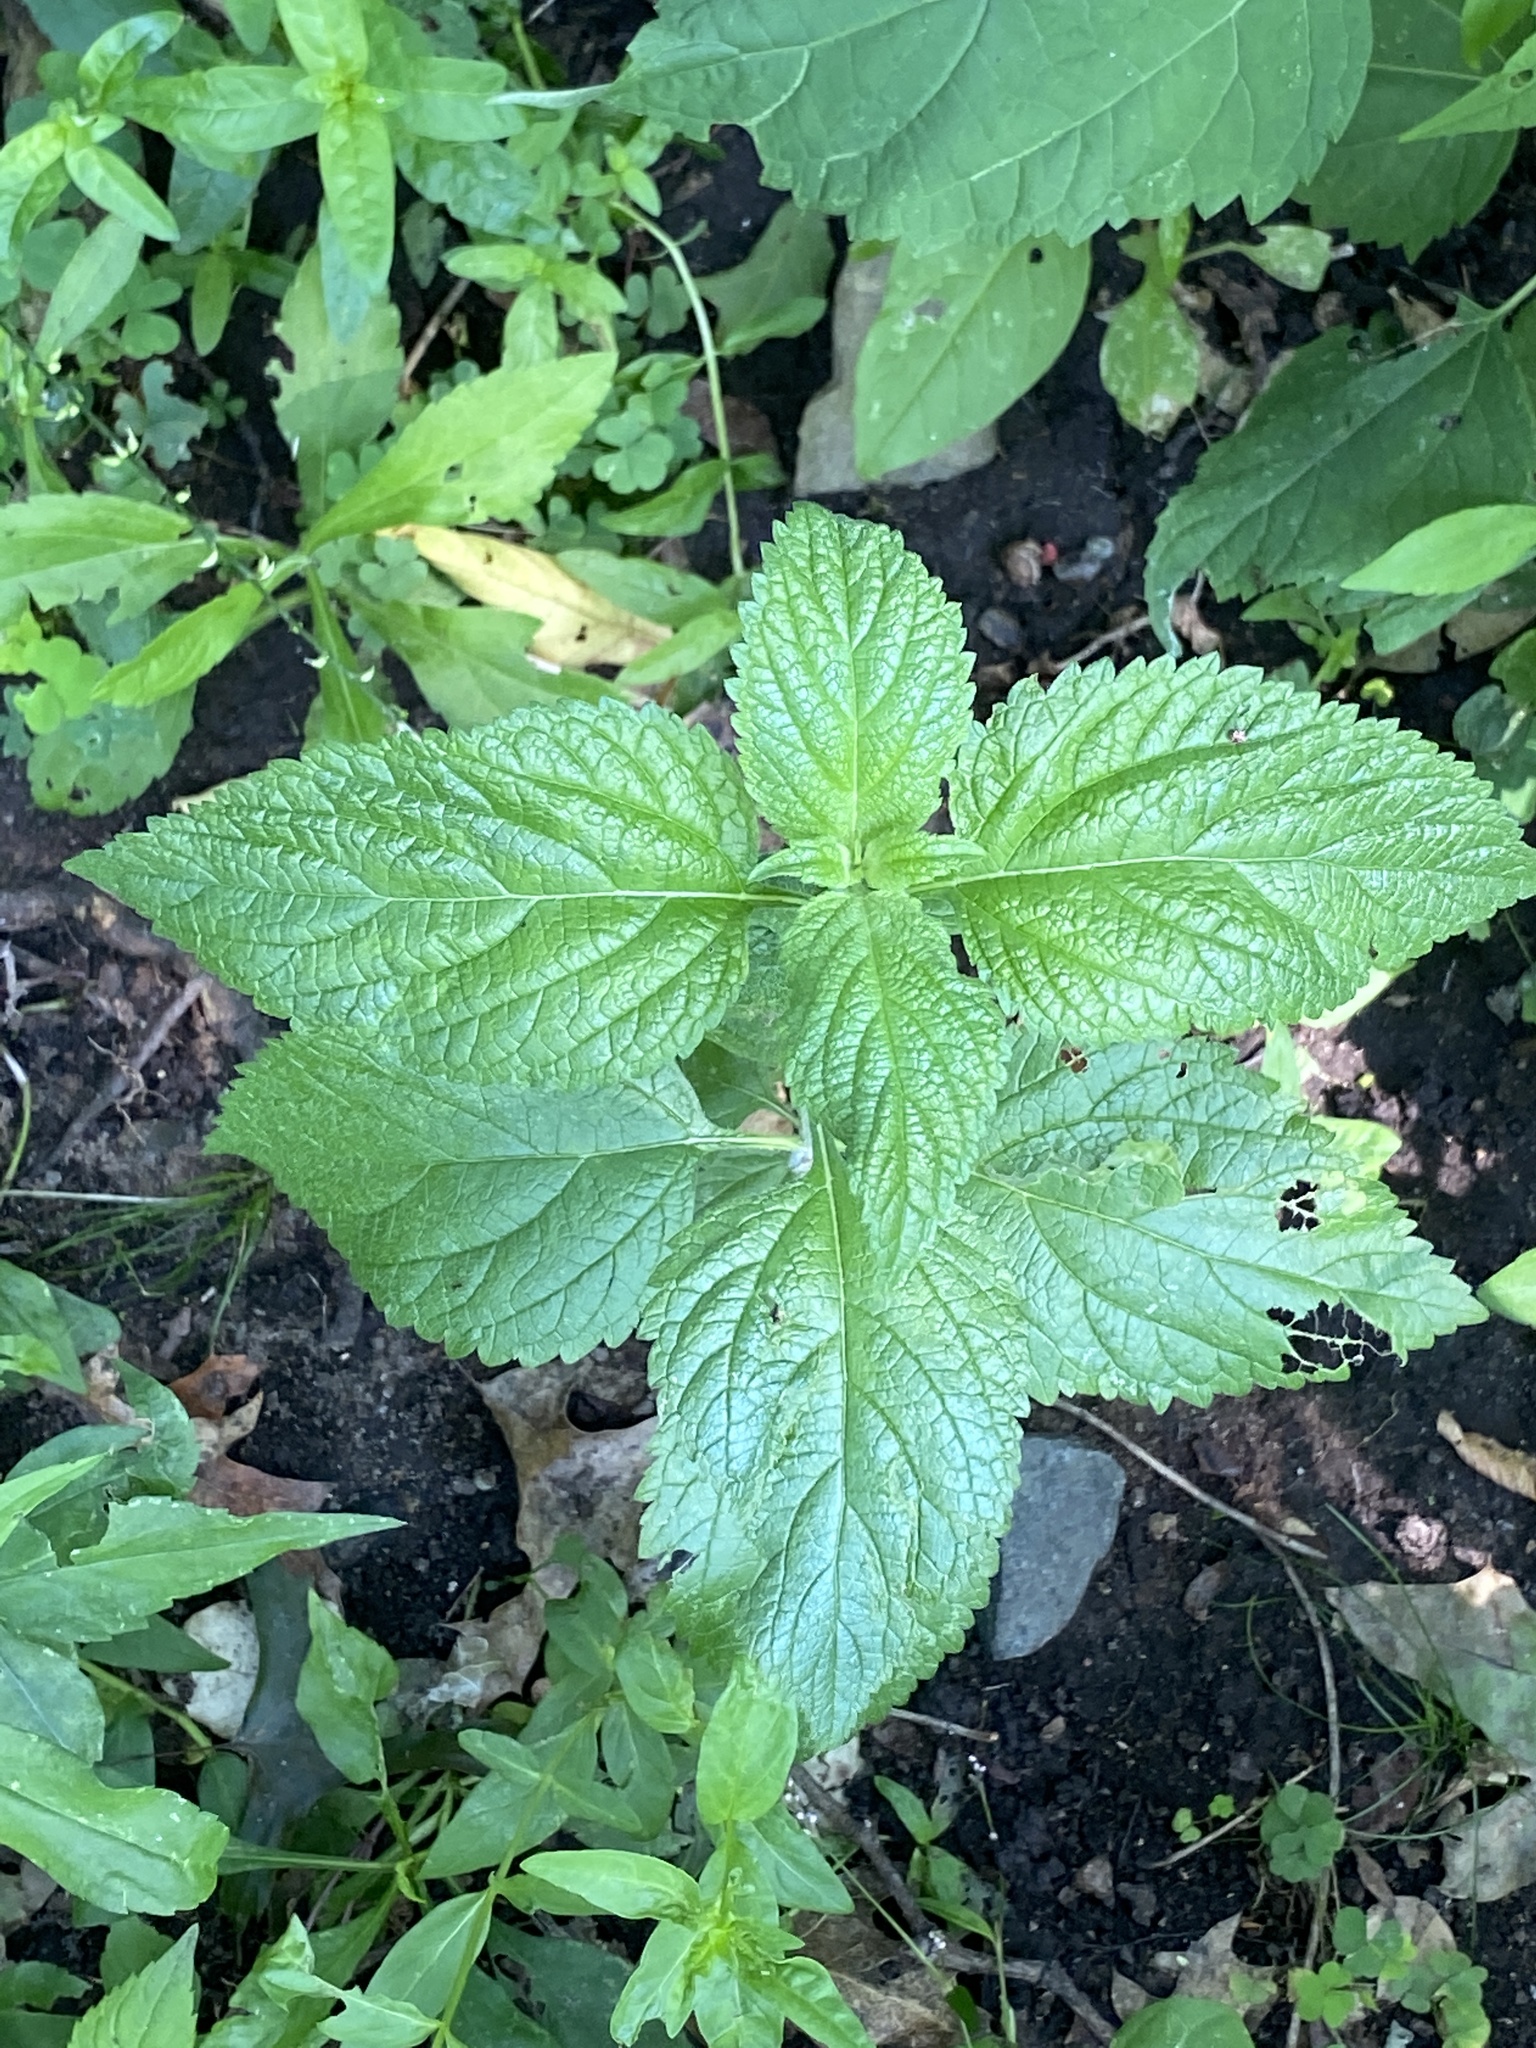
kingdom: Plantae
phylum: Tracheophyta
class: Magnoliopsida
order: Lamiales
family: Verbenaceae
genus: Verbena
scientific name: Verbena urticifolia
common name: Nettle-leaved vervain
